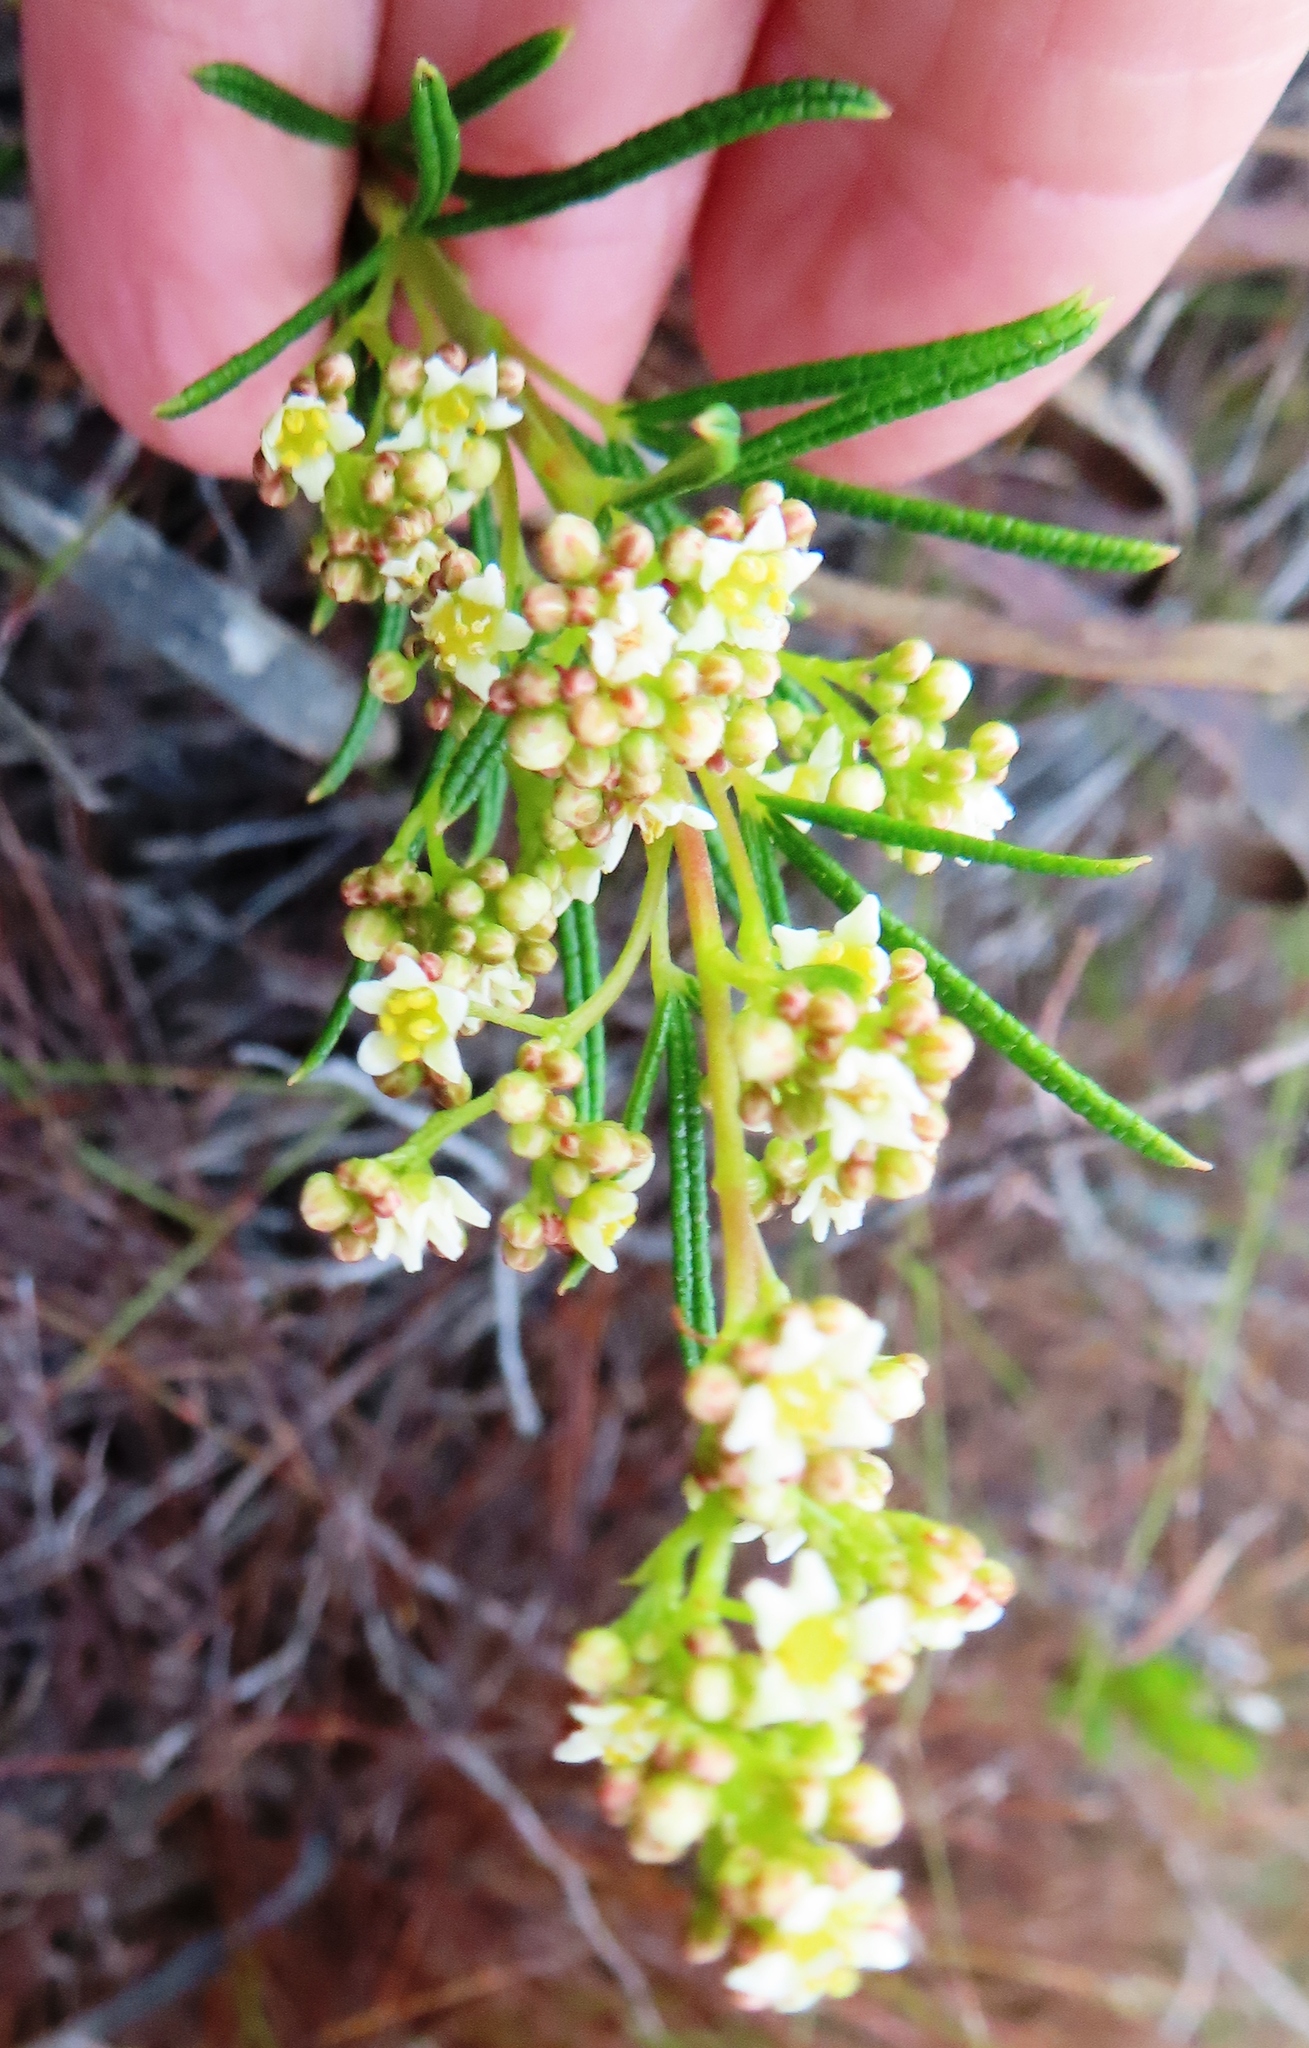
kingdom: Plantae
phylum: Tracheophyta
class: Magnoliopsida
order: Sapindales
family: Anacardiaceae
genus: Searsia
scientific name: Searsia rosmarinifolia
